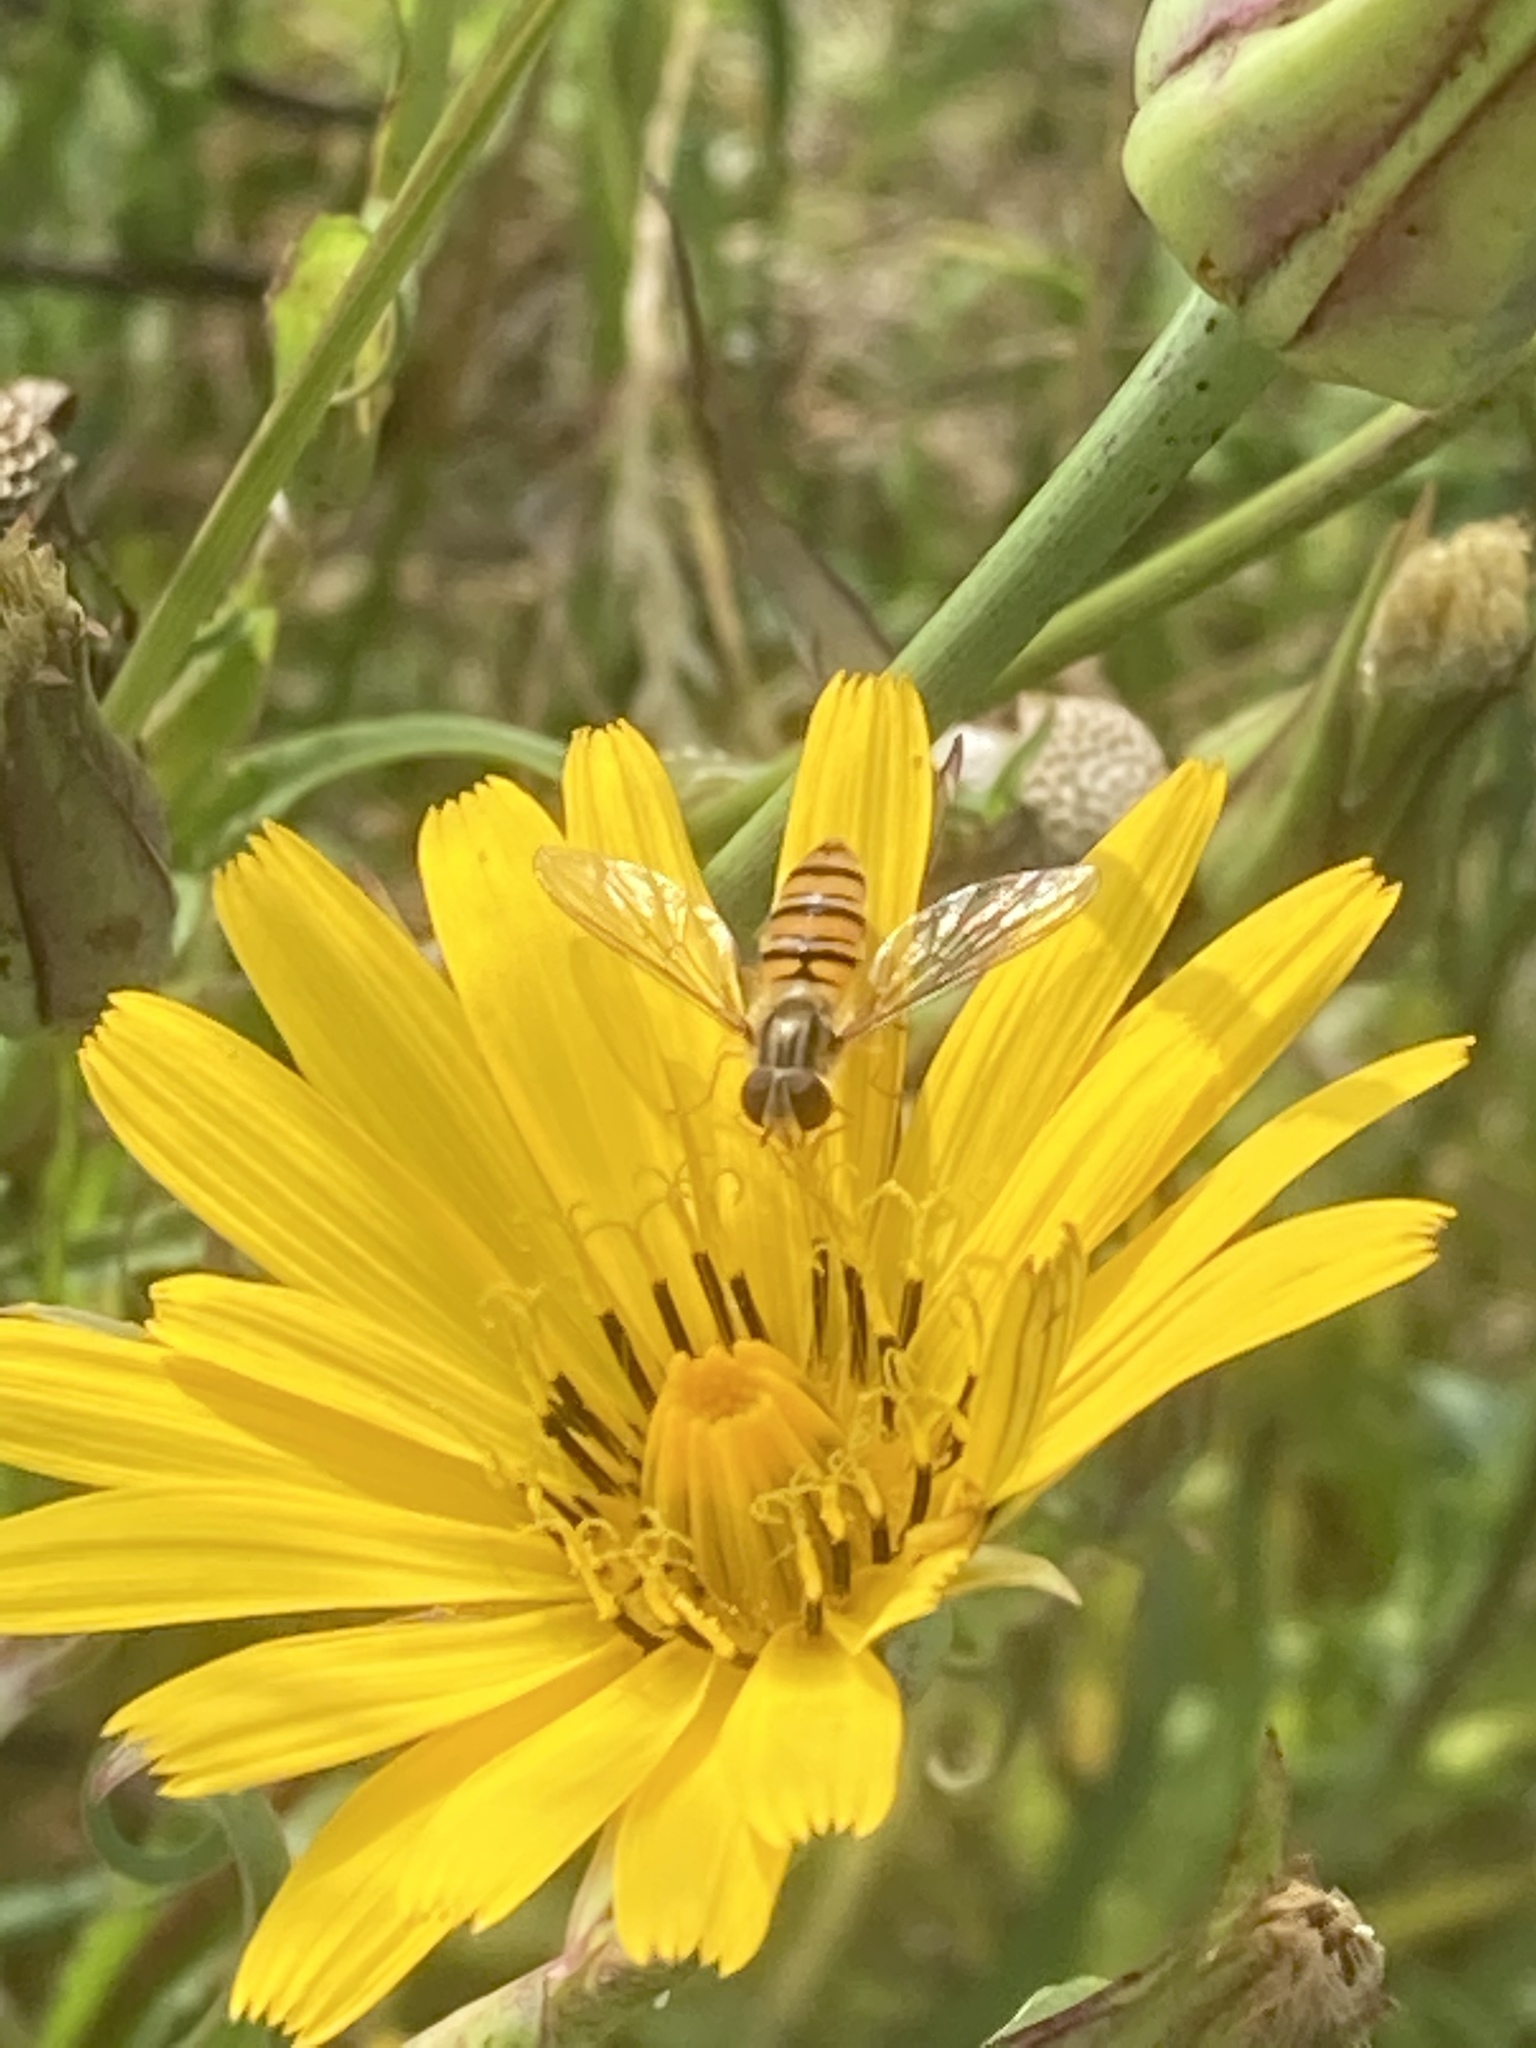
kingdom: Animalia
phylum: Arthropoda
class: Insecta
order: Diptera
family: Syrphidae
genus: Episyrphus
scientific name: Episyrphus balteatus
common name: Marmalade hoverfly
